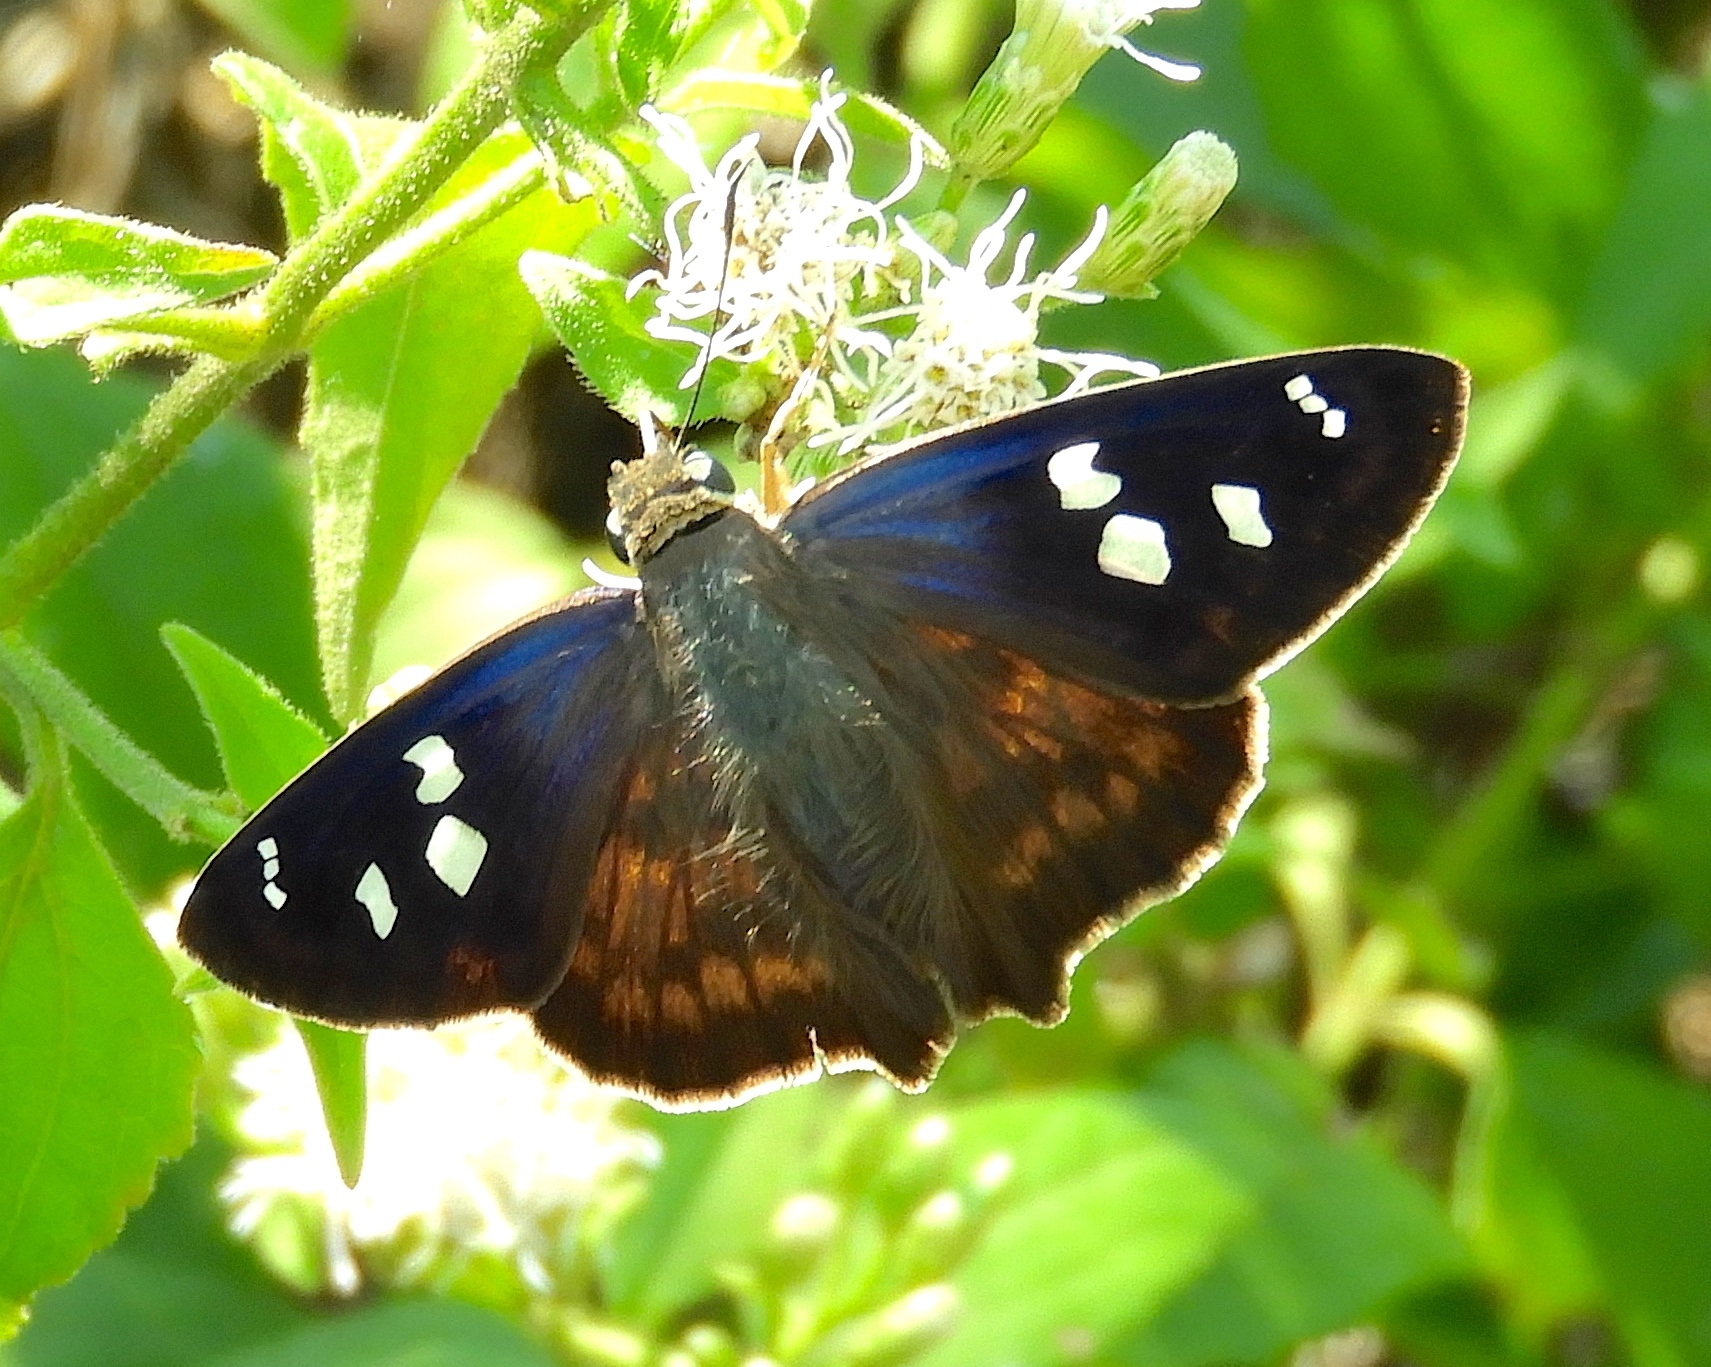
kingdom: Animalia
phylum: Arthropoda
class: Insecta
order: Lepidoptera
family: Hesperiidae
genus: Polygonus
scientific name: Polygonus leo
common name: Hammoch skipper
